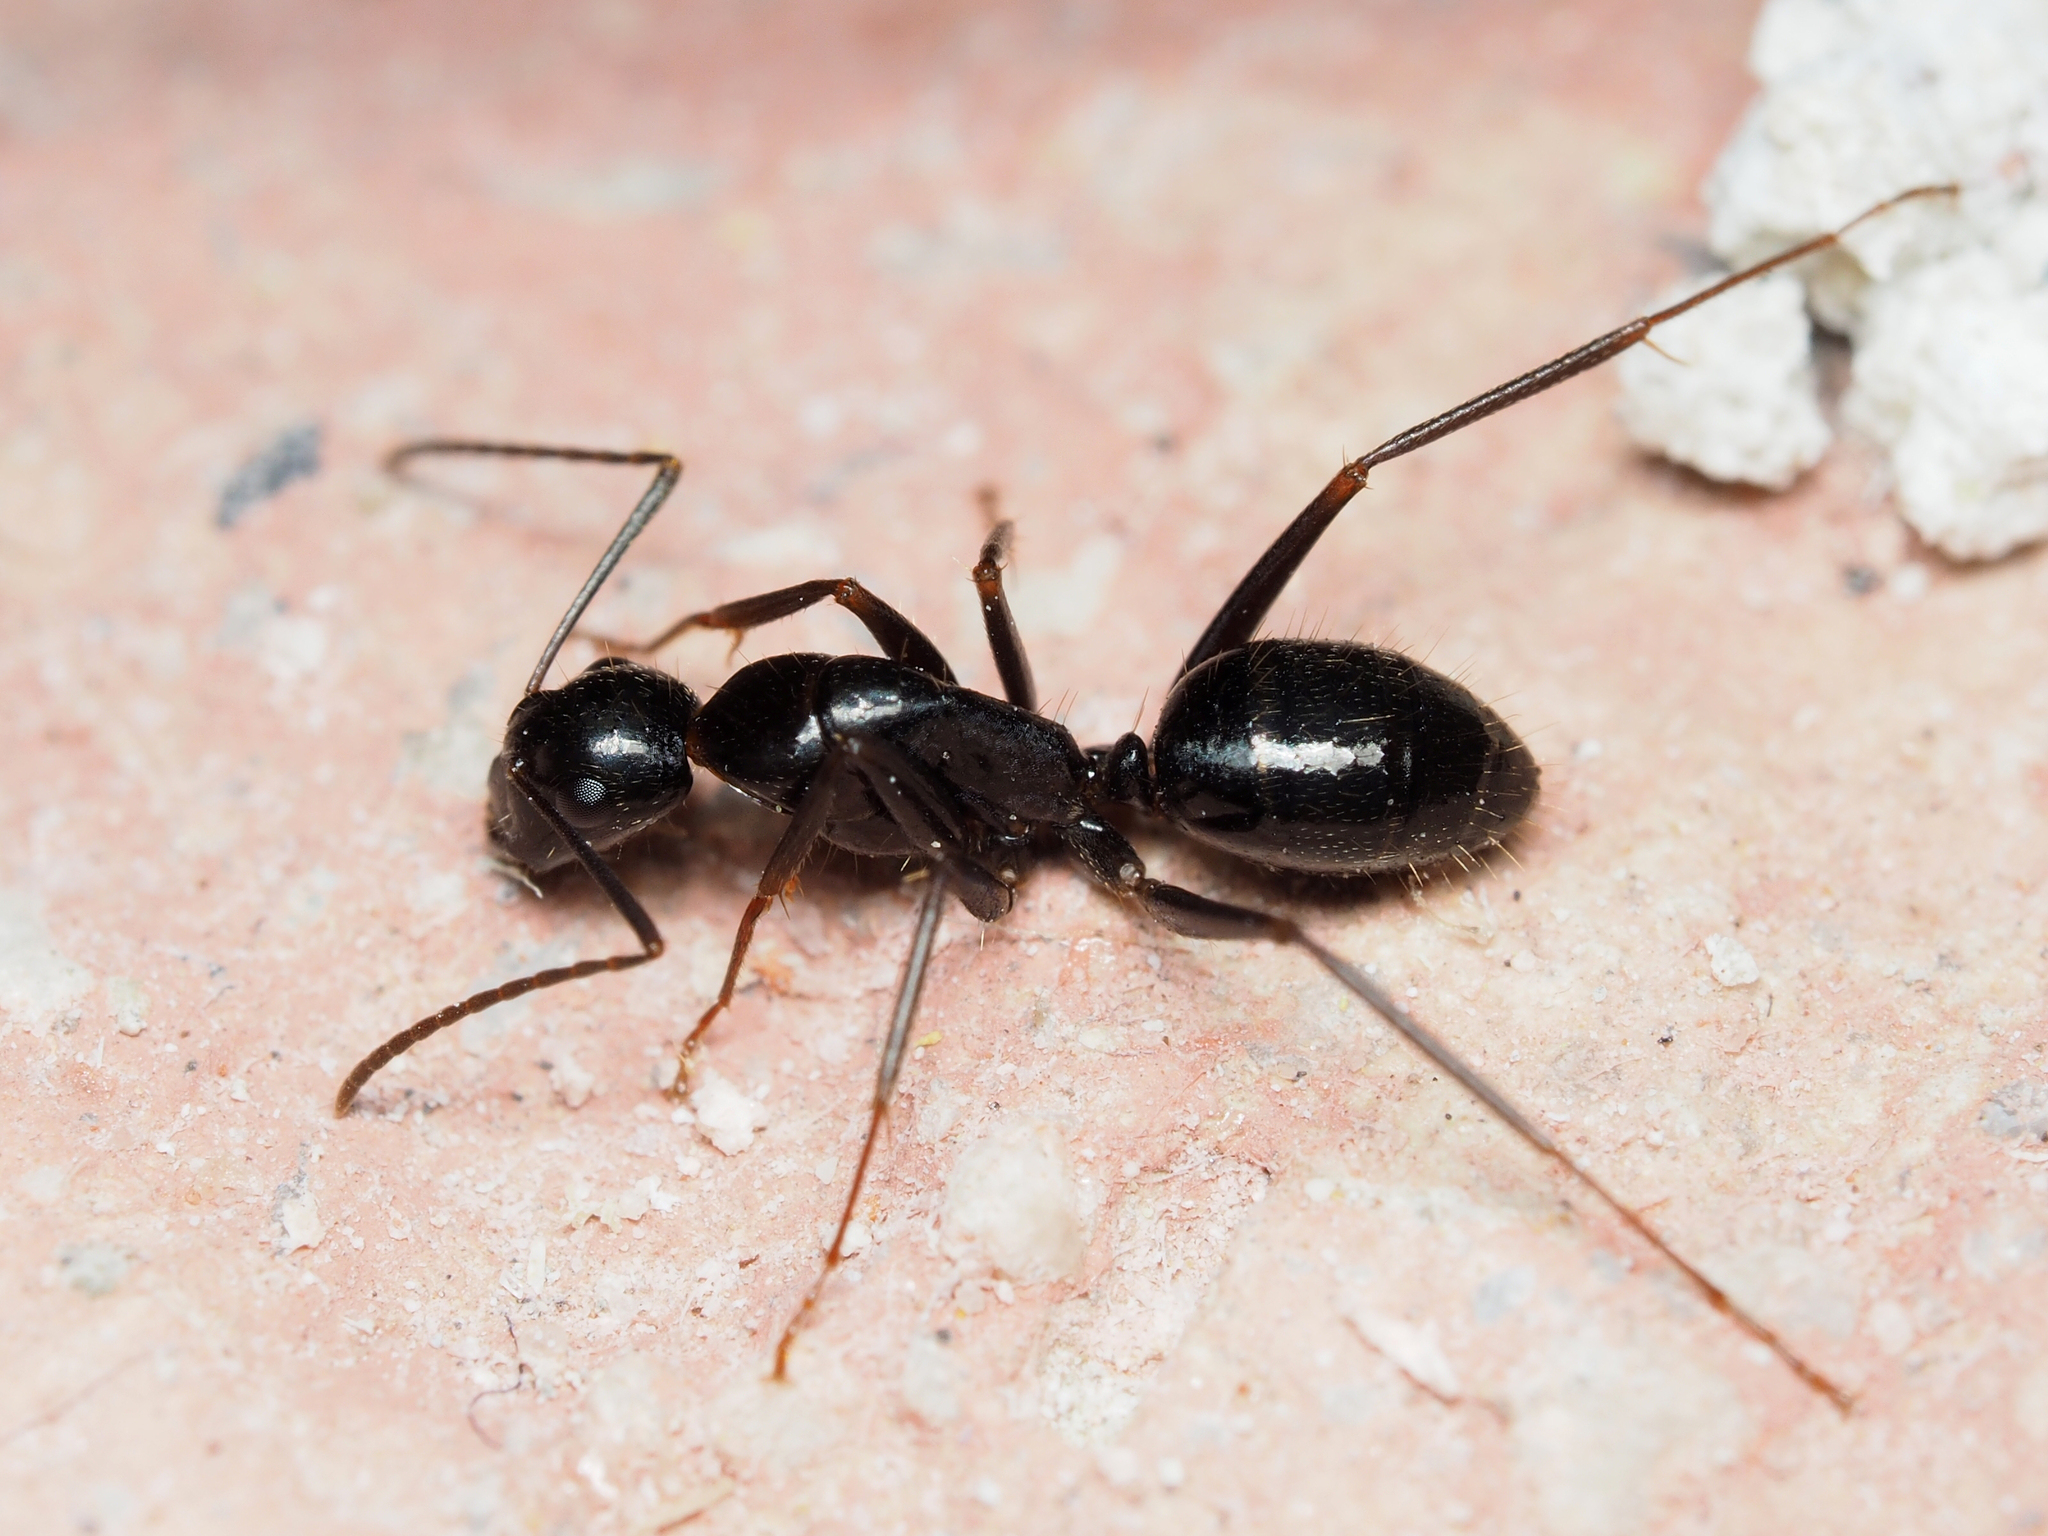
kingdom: Animalia
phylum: Arthropoda
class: Insecta
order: Hymenoptera
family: Formicidae
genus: Camponotus
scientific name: Camponotus aethiops
